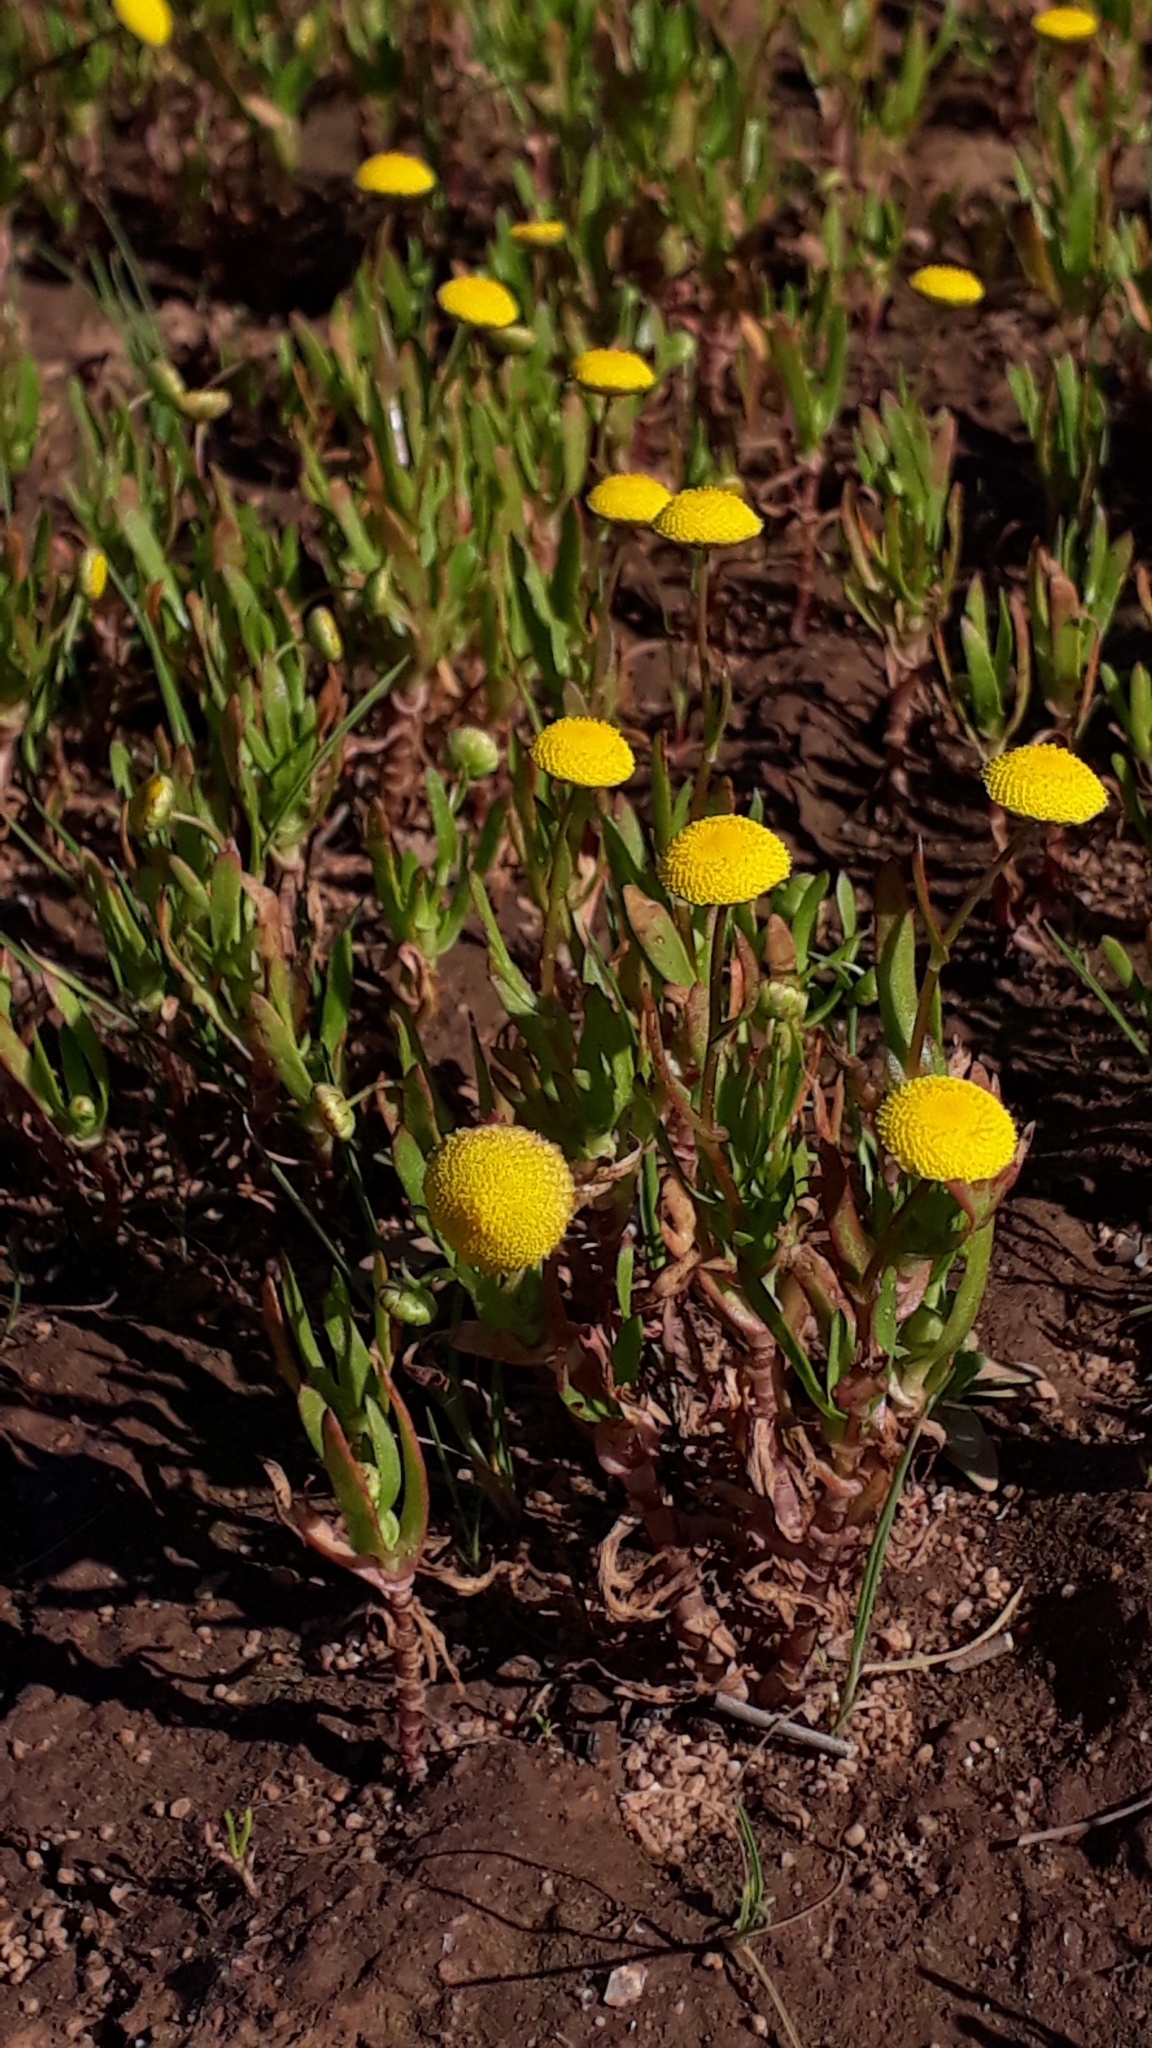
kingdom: Plantae
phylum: Tracheophyta
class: Magnoliopsida
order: Asterales
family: Asteraceae
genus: Cotula
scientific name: Cotula coronopifolia
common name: Buttonweed
